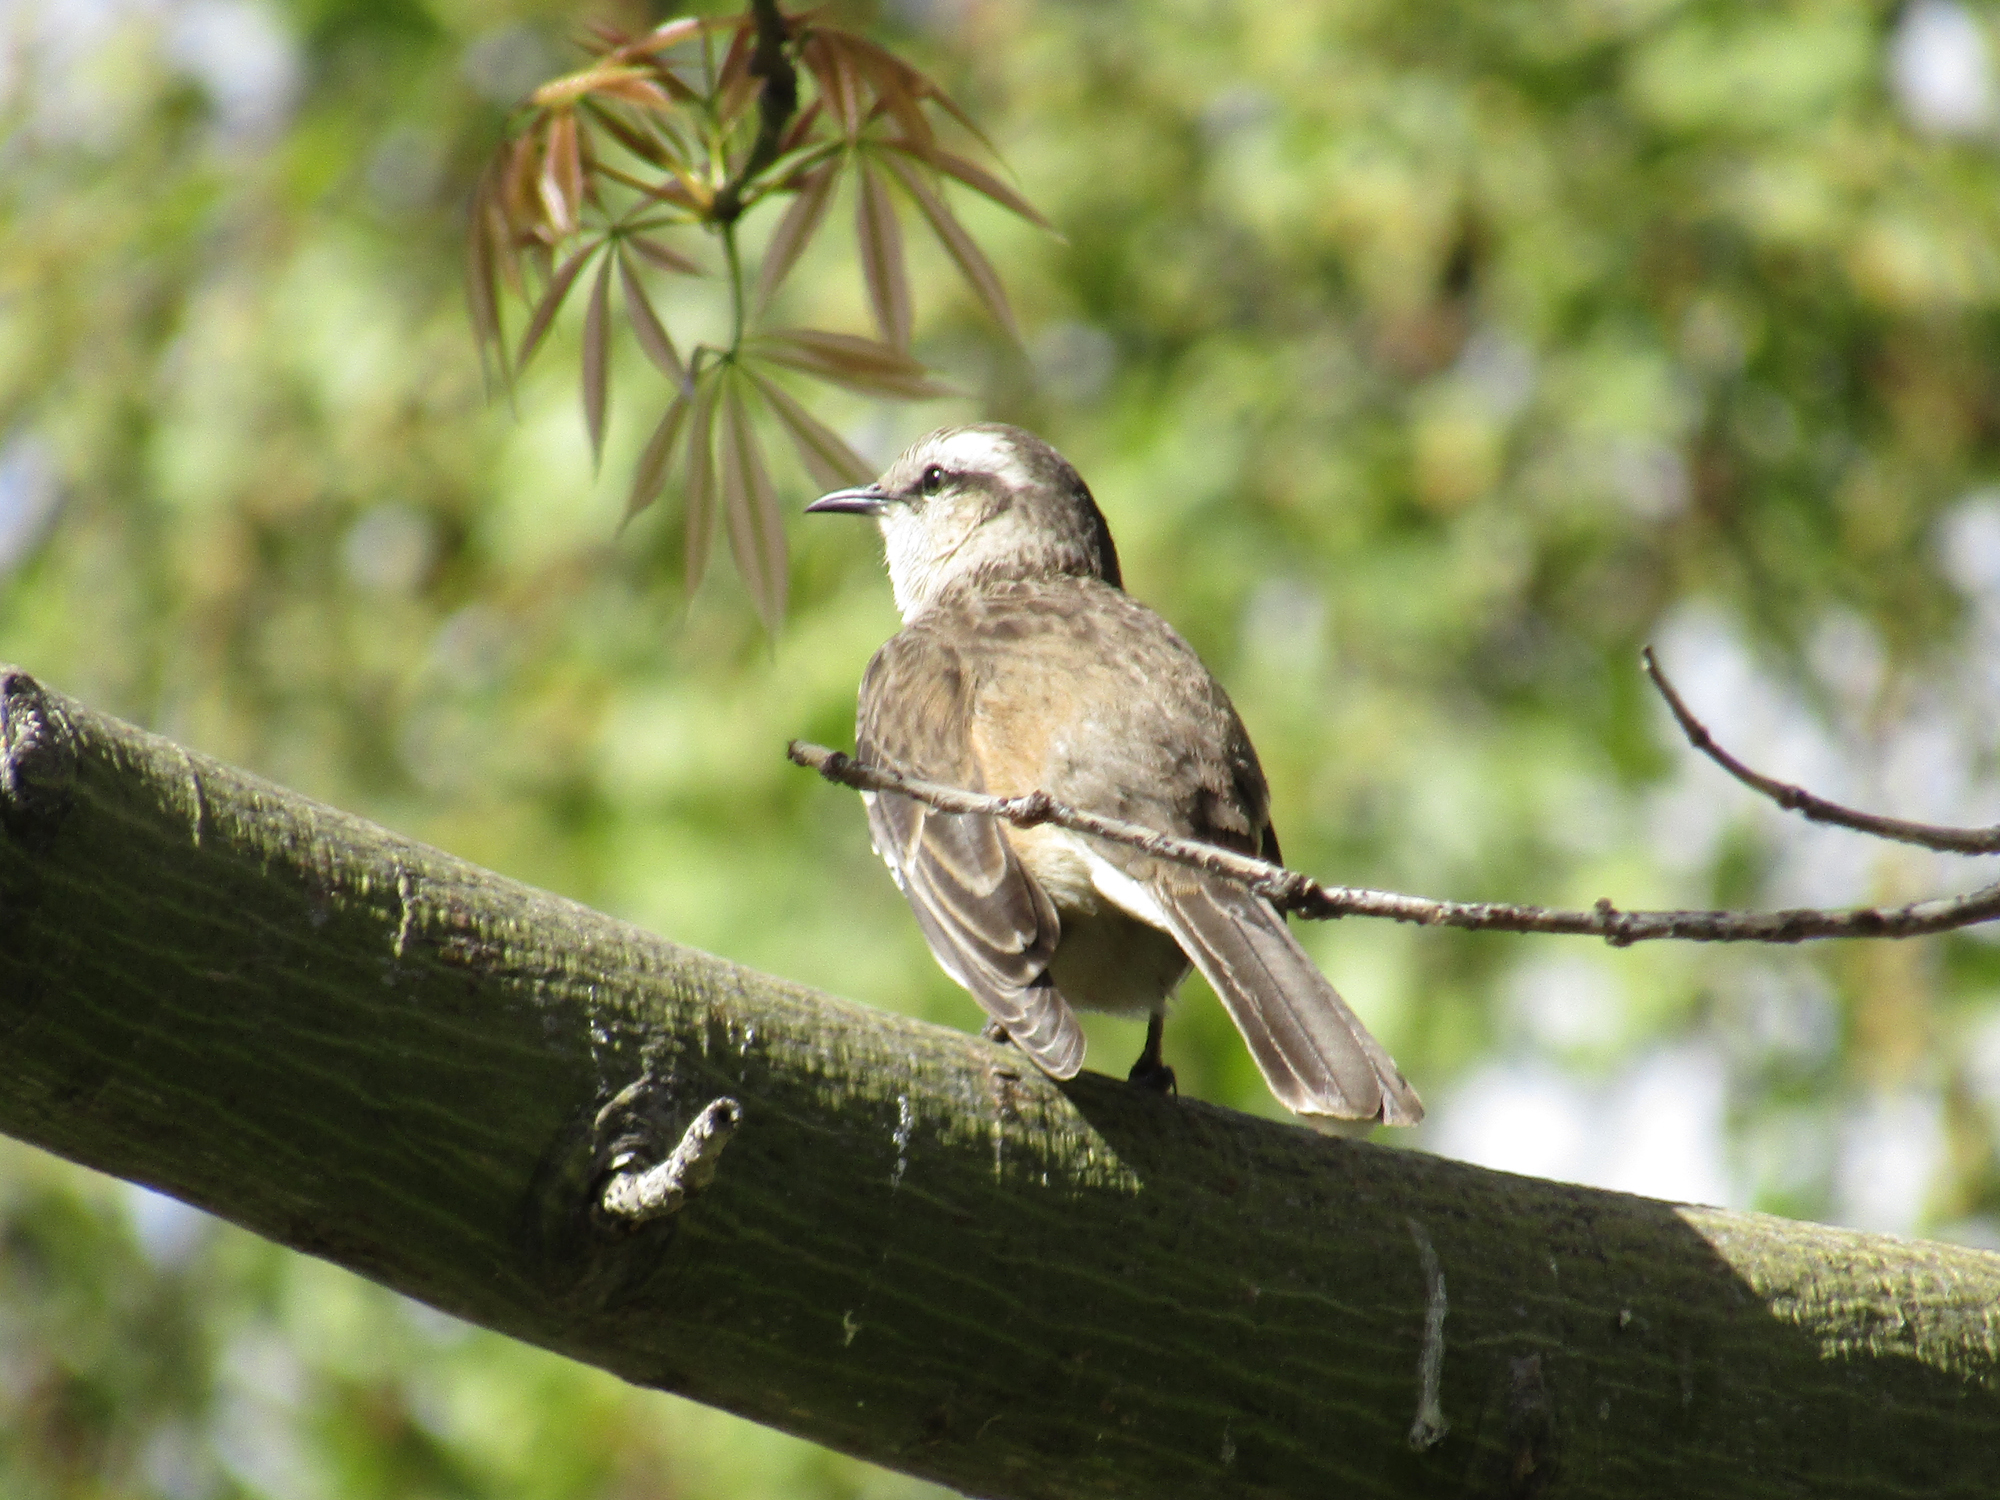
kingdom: Animalia
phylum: Chordata
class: Aves
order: Passeriformes
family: Mimidae
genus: Mimus
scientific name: Mimus saturninus
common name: Chalk-browed mockingbird
